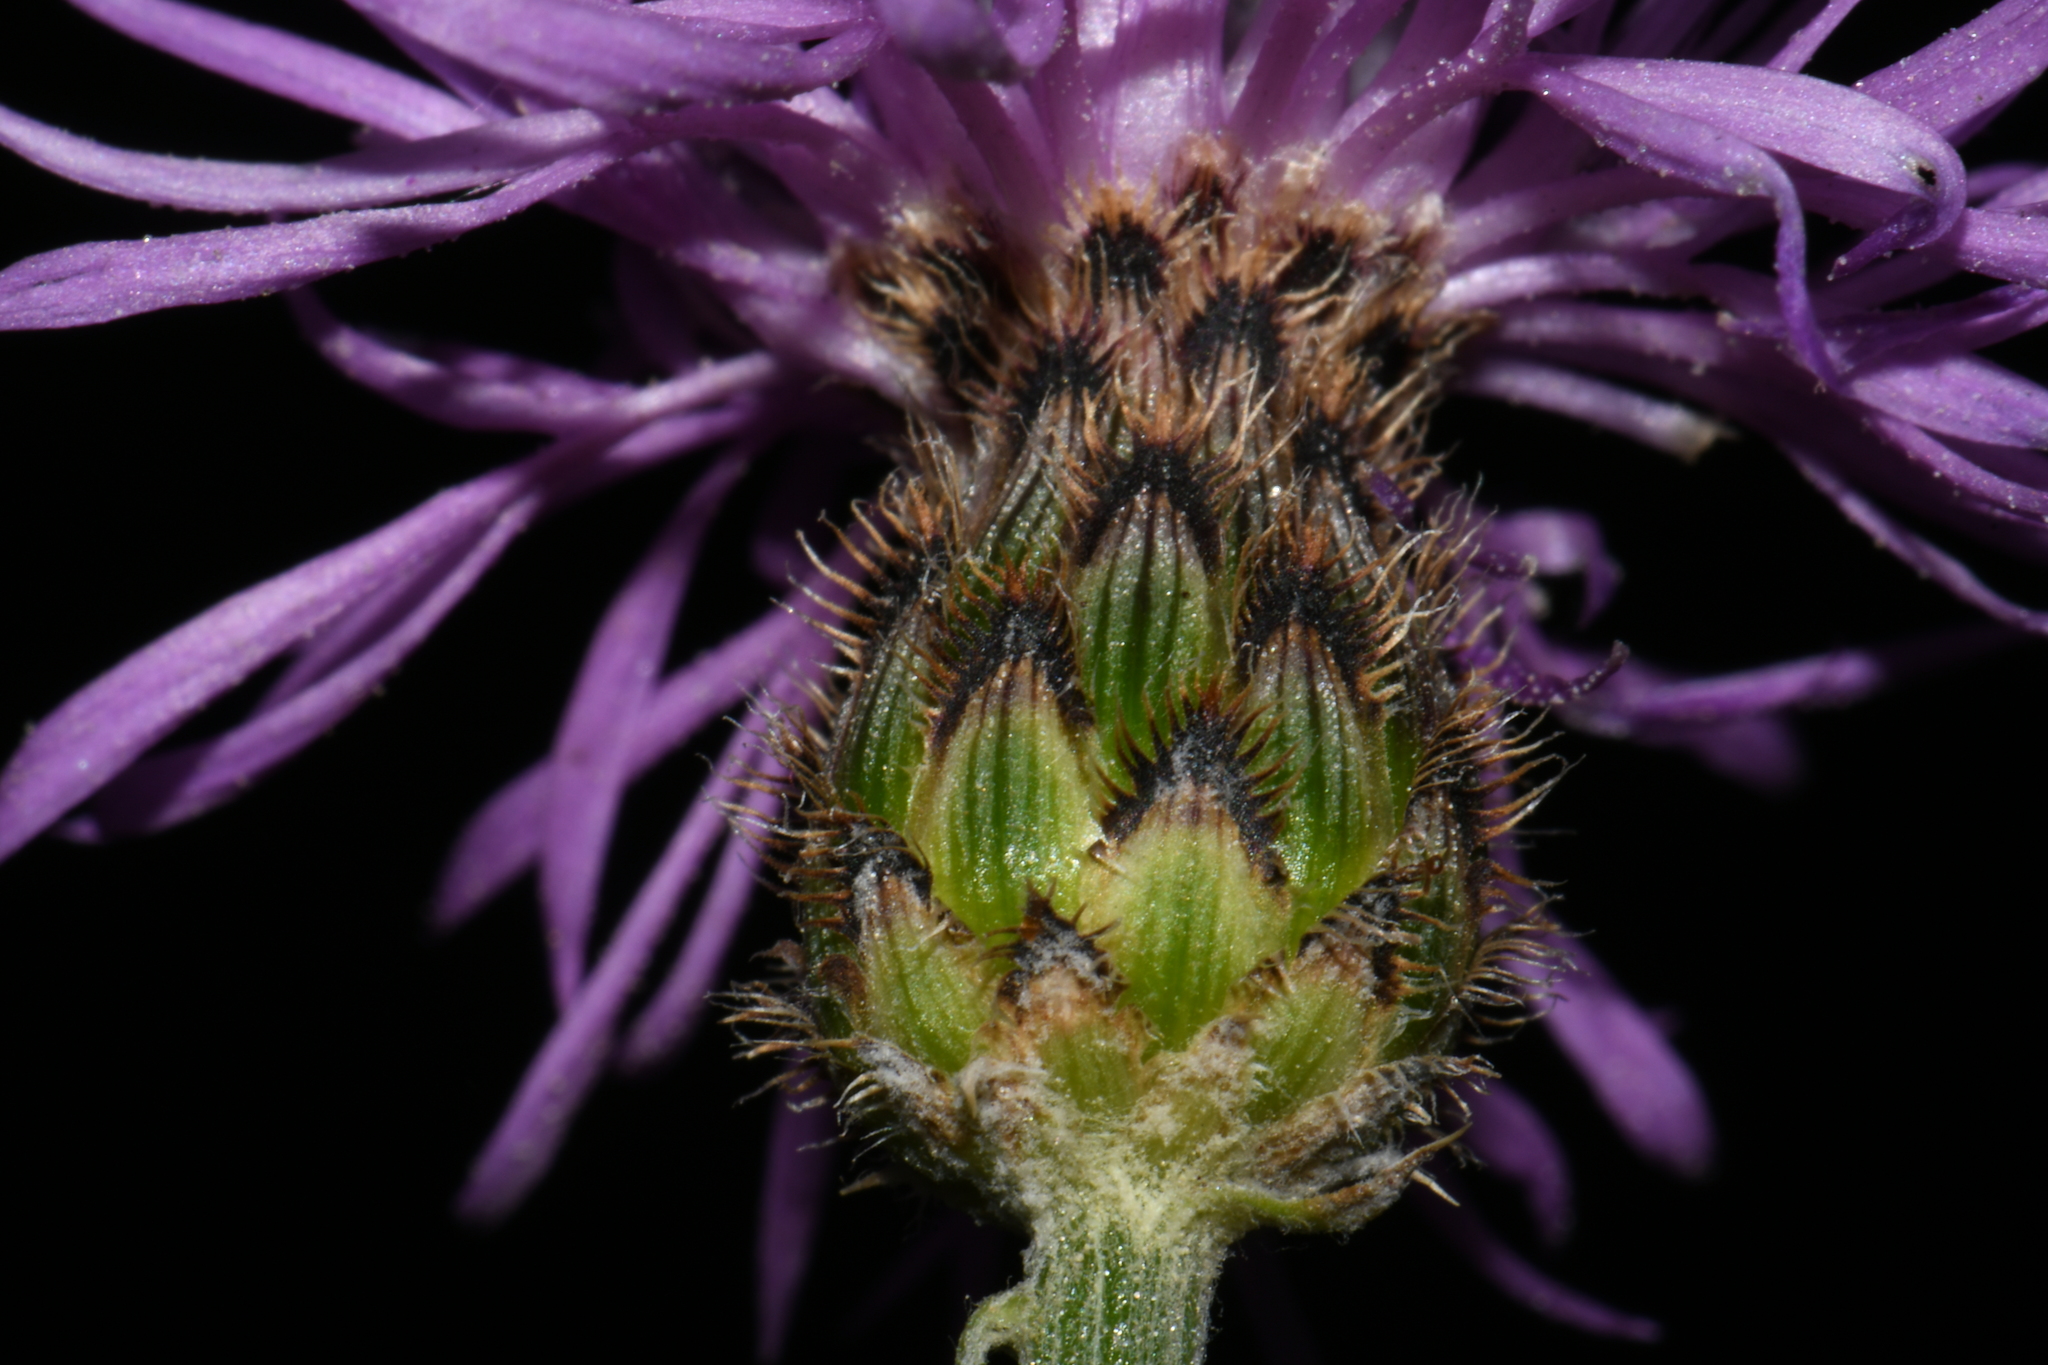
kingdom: Plantae
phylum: Tracheophyta
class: Magnoliopsida
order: Asterales
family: Asteraceae
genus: Centaurea
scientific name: Centaurea australis
